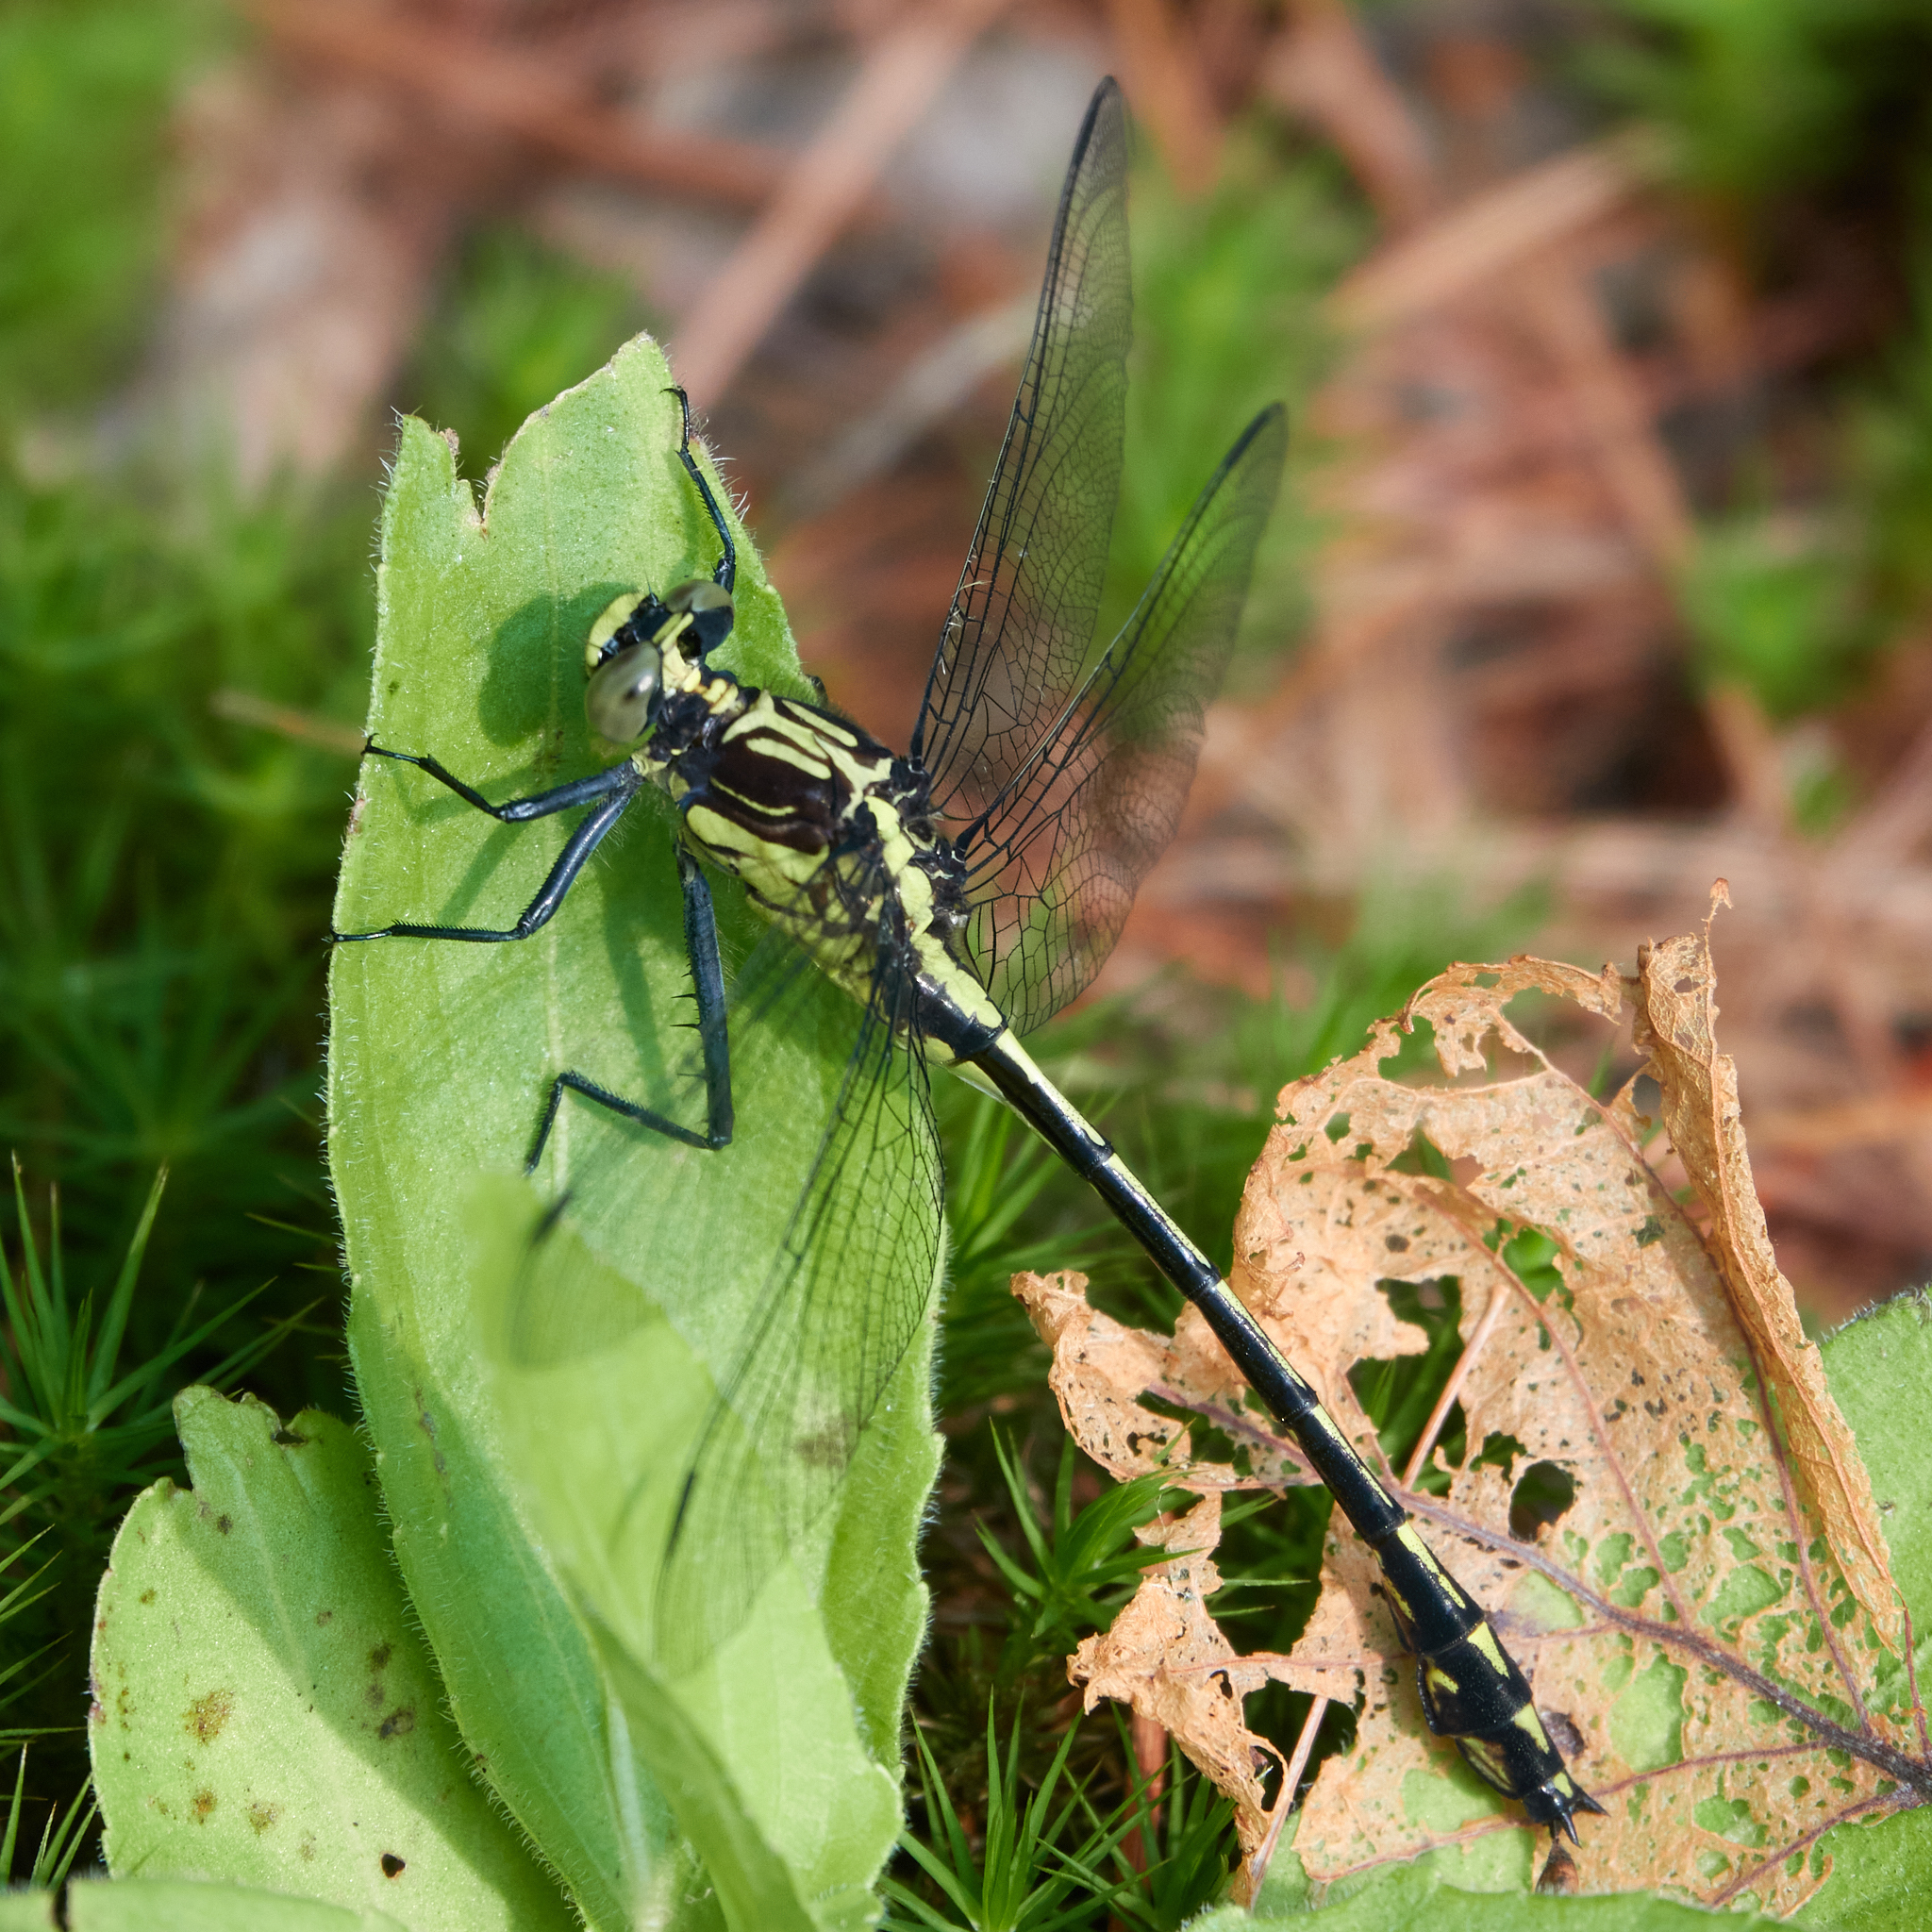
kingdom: Animalia
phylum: Arthropoda
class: Insecta
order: Odonata
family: Gomphidae
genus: Dromogomphus
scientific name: Dromogomphus spinosus
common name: Black-shouldered spinyleg
